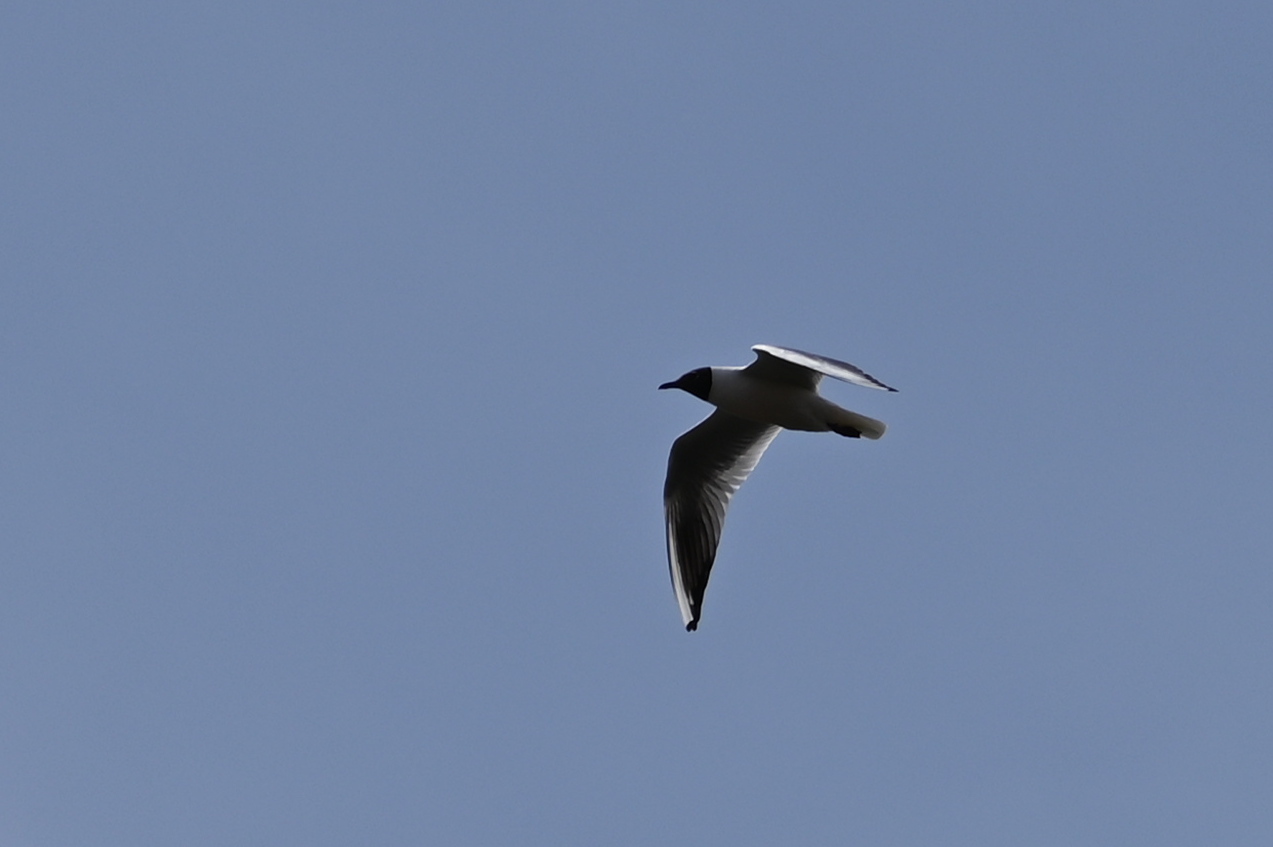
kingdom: Animalia
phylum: Chordata
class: Aves
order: Charadriiformes
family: Laridae
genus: Chroicocephalus
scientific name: Chroicocephalus ridibundus
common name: Black-headed gull
